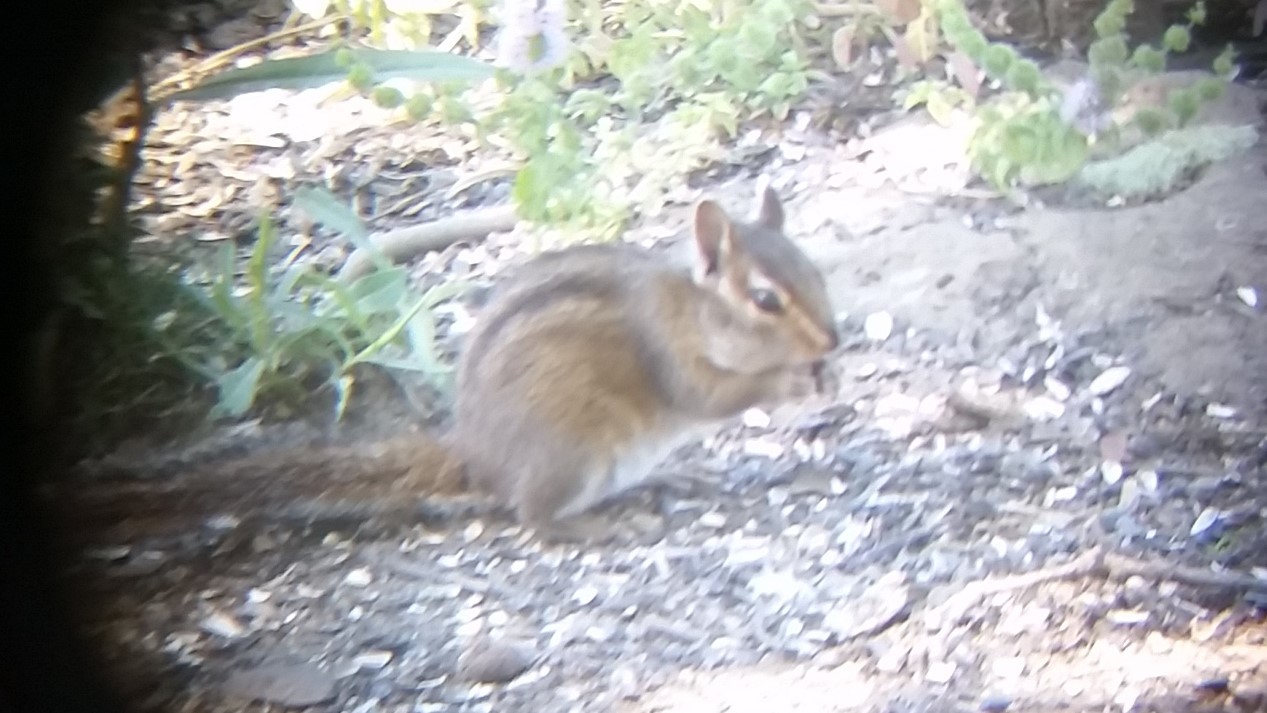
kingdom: Animalia
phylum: Chordata
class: Mammalia
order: Rodentia
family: Sciuridae
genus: Tamias
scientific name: Tamias townsendii
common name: Townsend's chipmunk
